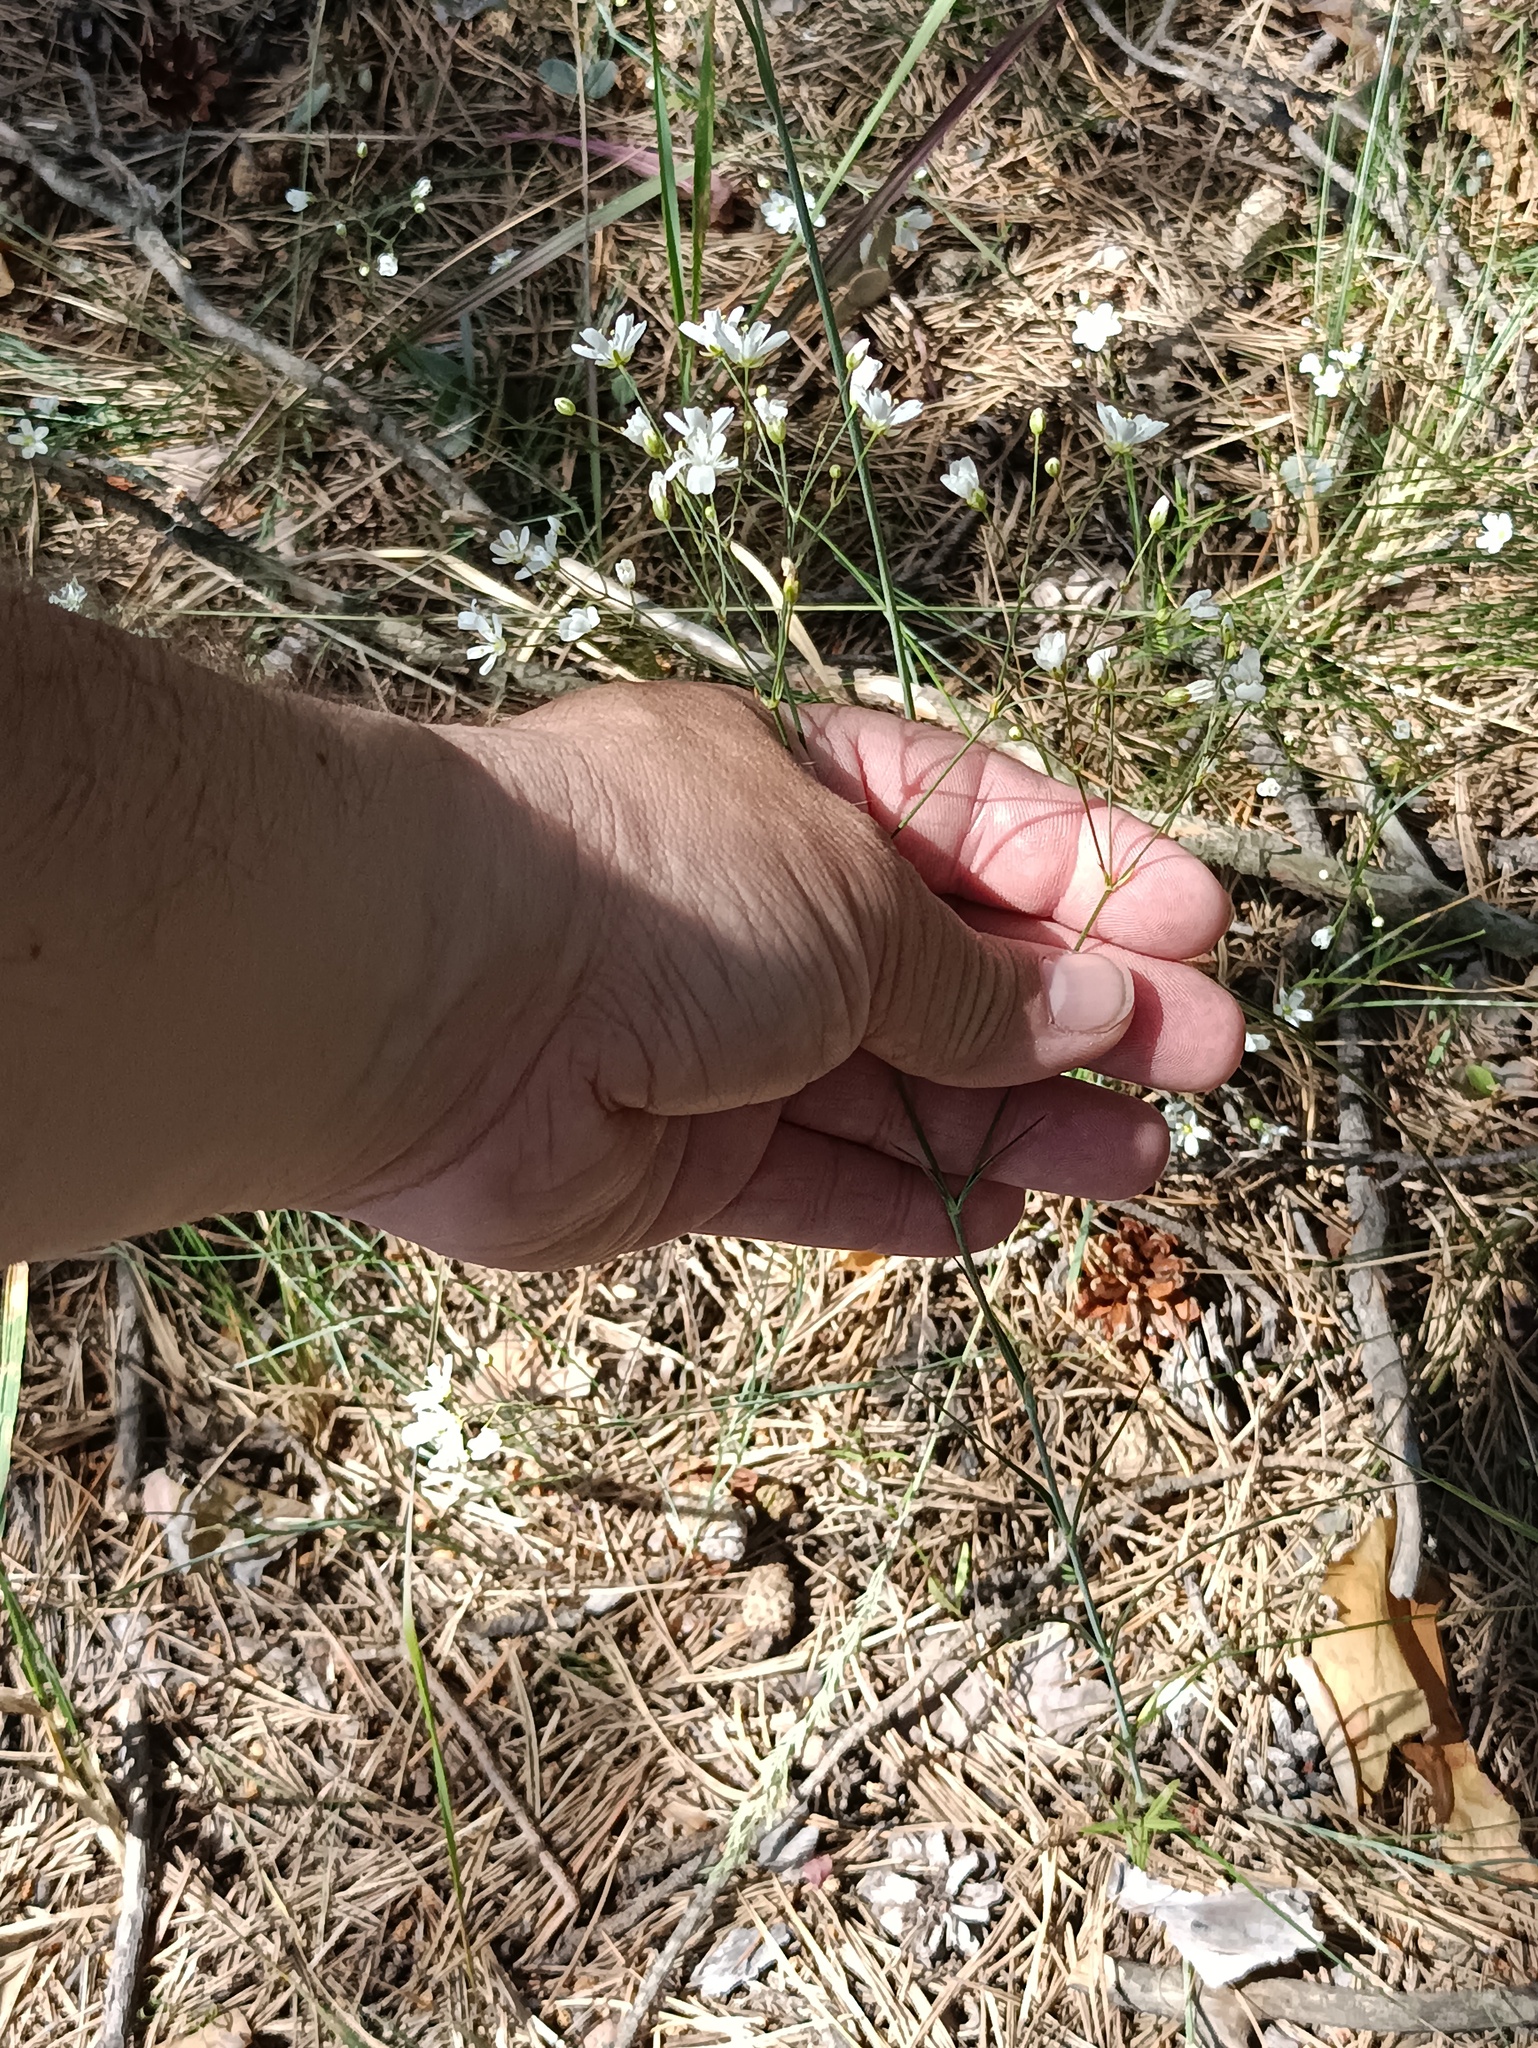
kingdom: Plantae
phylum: Tracheophyta
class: Magnoliopsida
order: Caryophyllales
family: Caryophyllaceae
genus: Eremogone
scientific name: Eremogone saxatilis
